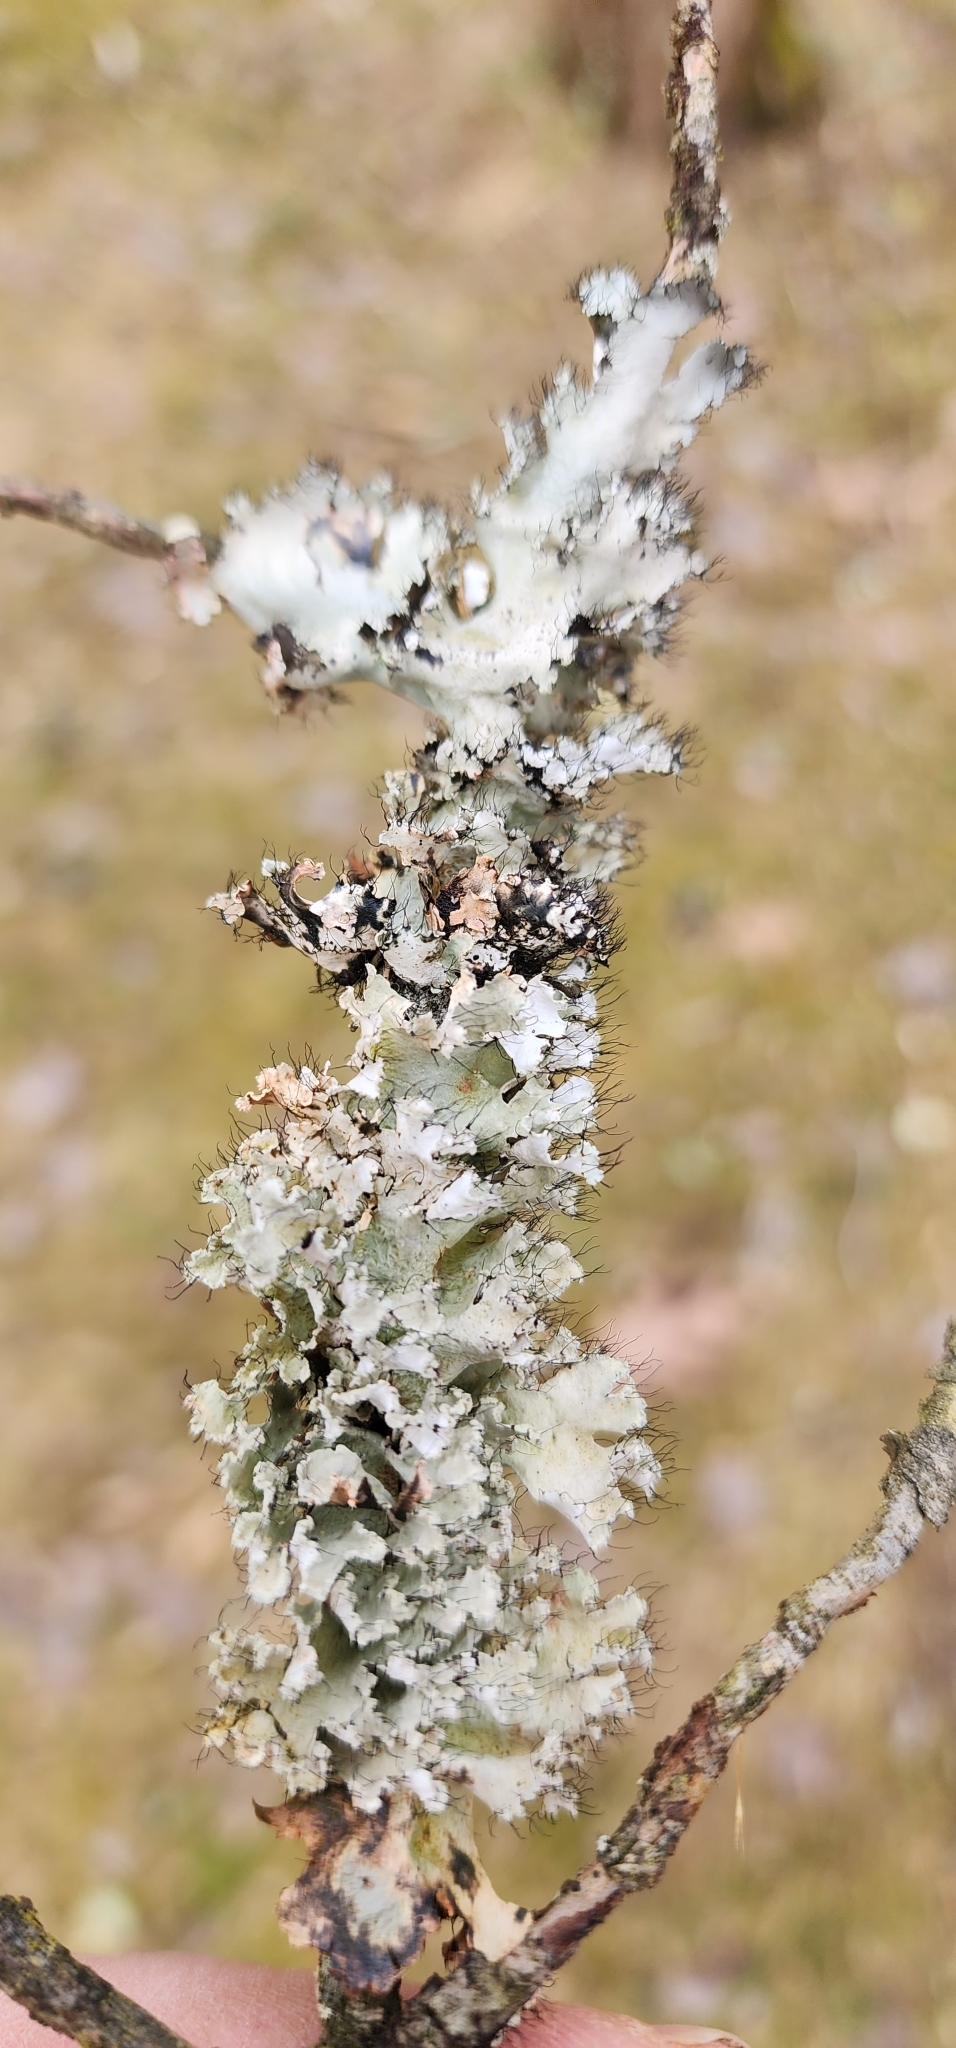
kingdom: Fungi
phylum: Ascomycota
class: Lecanoromycetes
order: Lecanorales
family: Parmeliaceae
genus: Parmotrema
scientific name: Parmotrema hypotropum
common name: Powdered ruffle lichen
